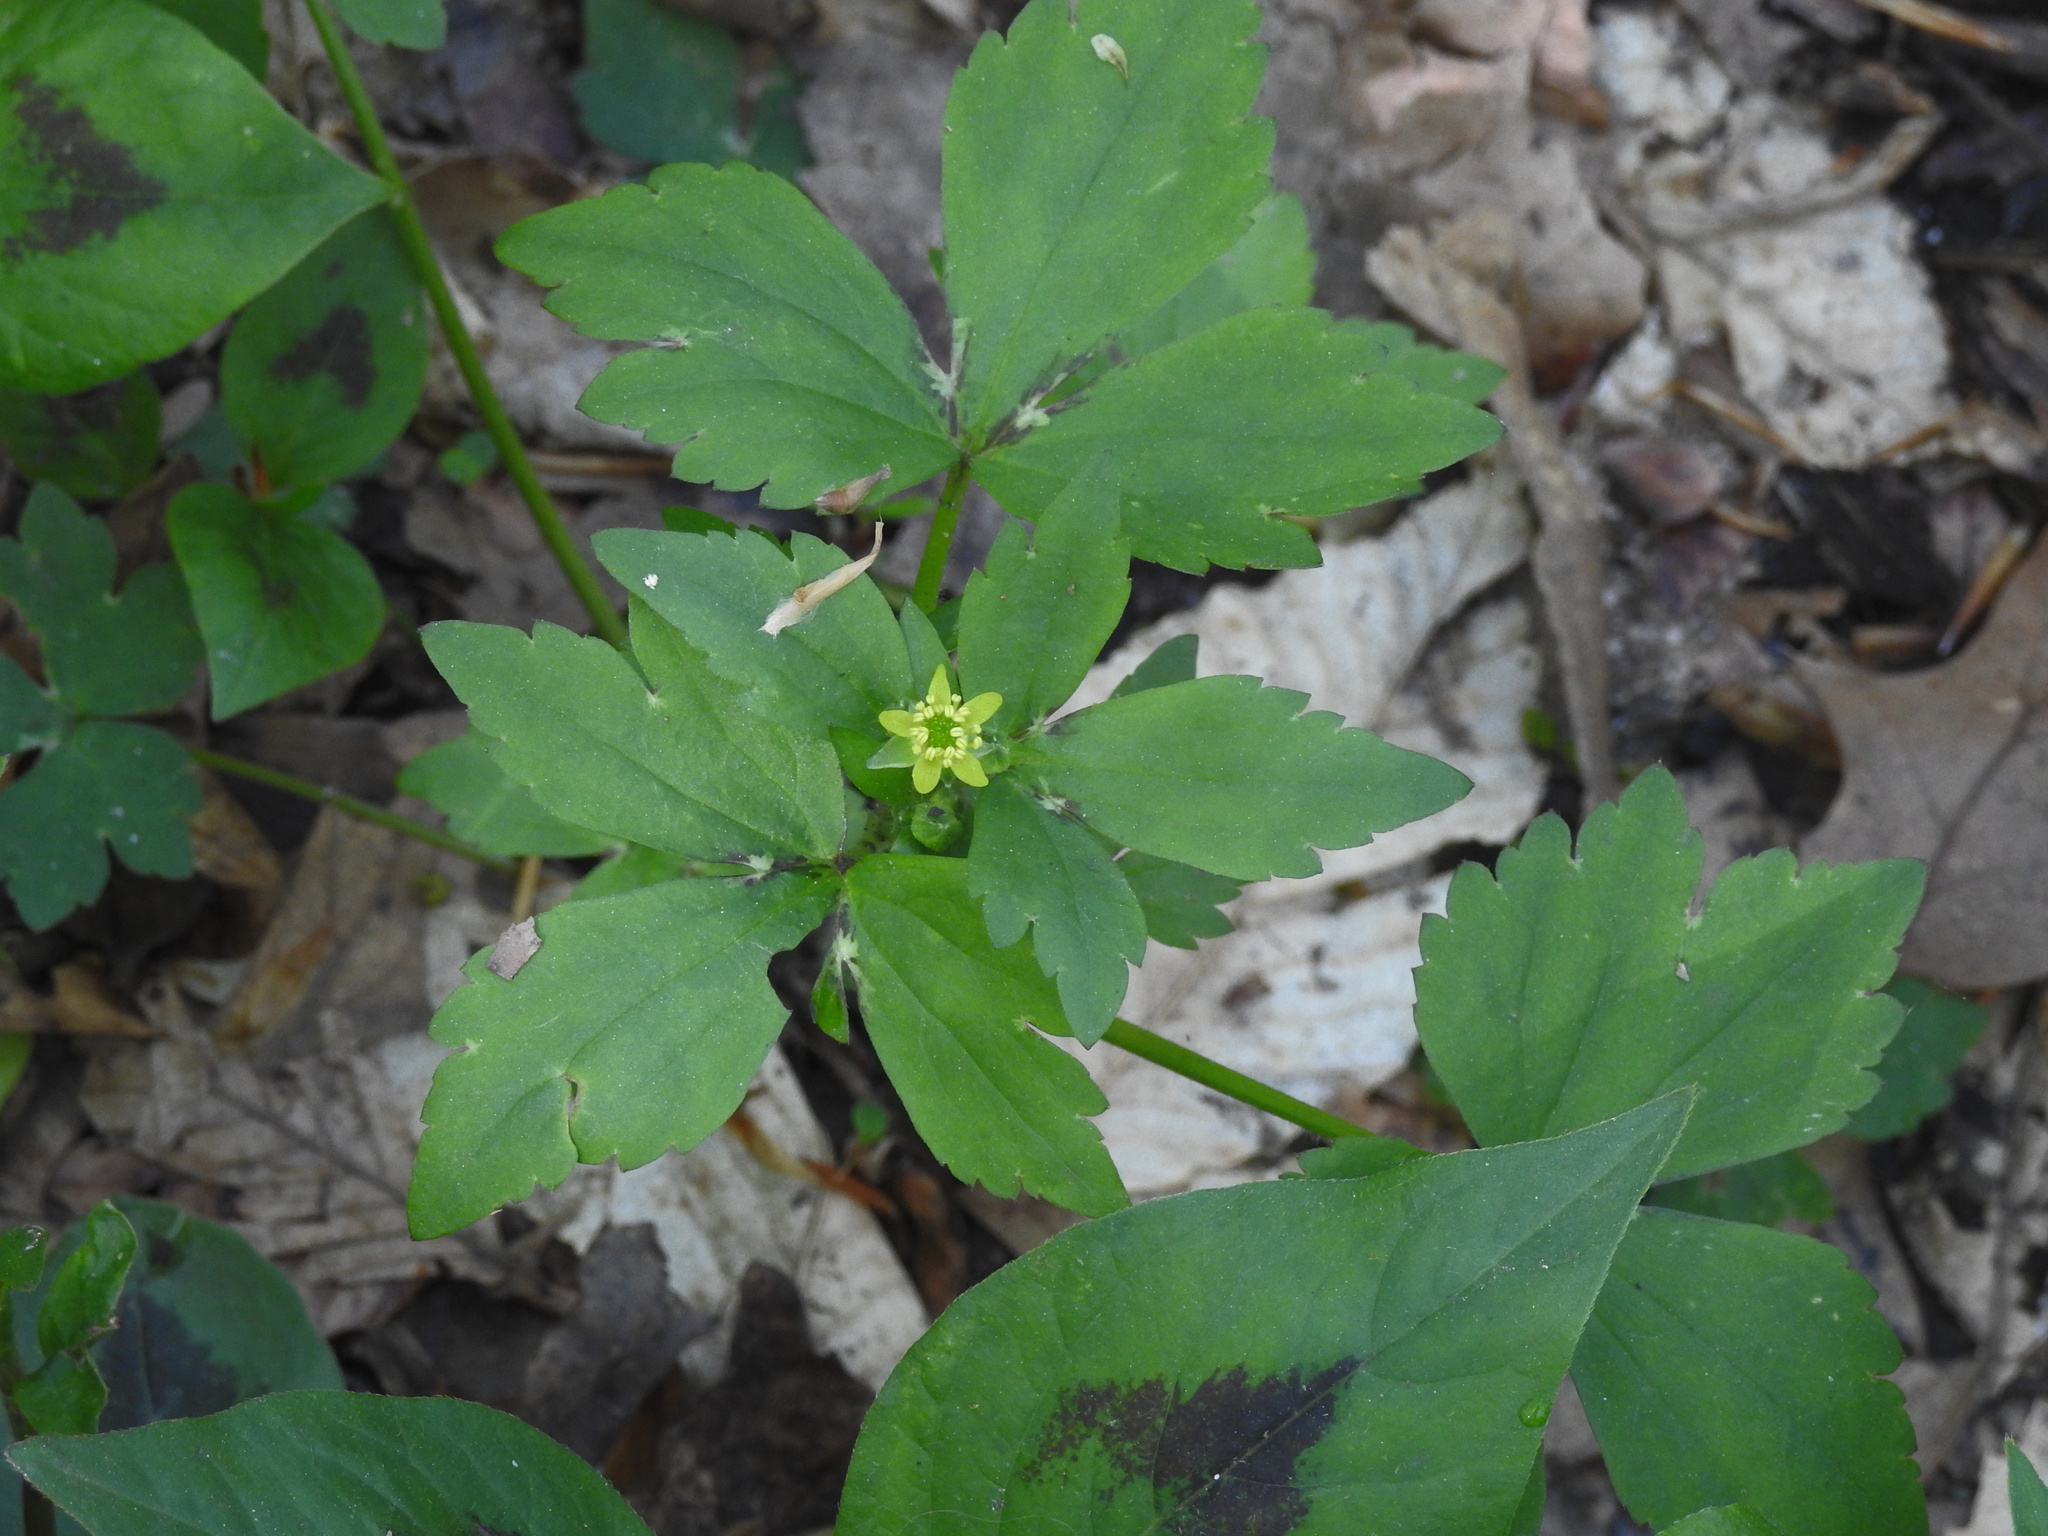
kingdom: Plantae
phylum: Tracheophyta
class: Magnoliopsida
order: Ranunculales
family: Ranunculaceae
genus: Ranunculus
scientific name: Ranunculus recurvatus
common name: Blisterwort
